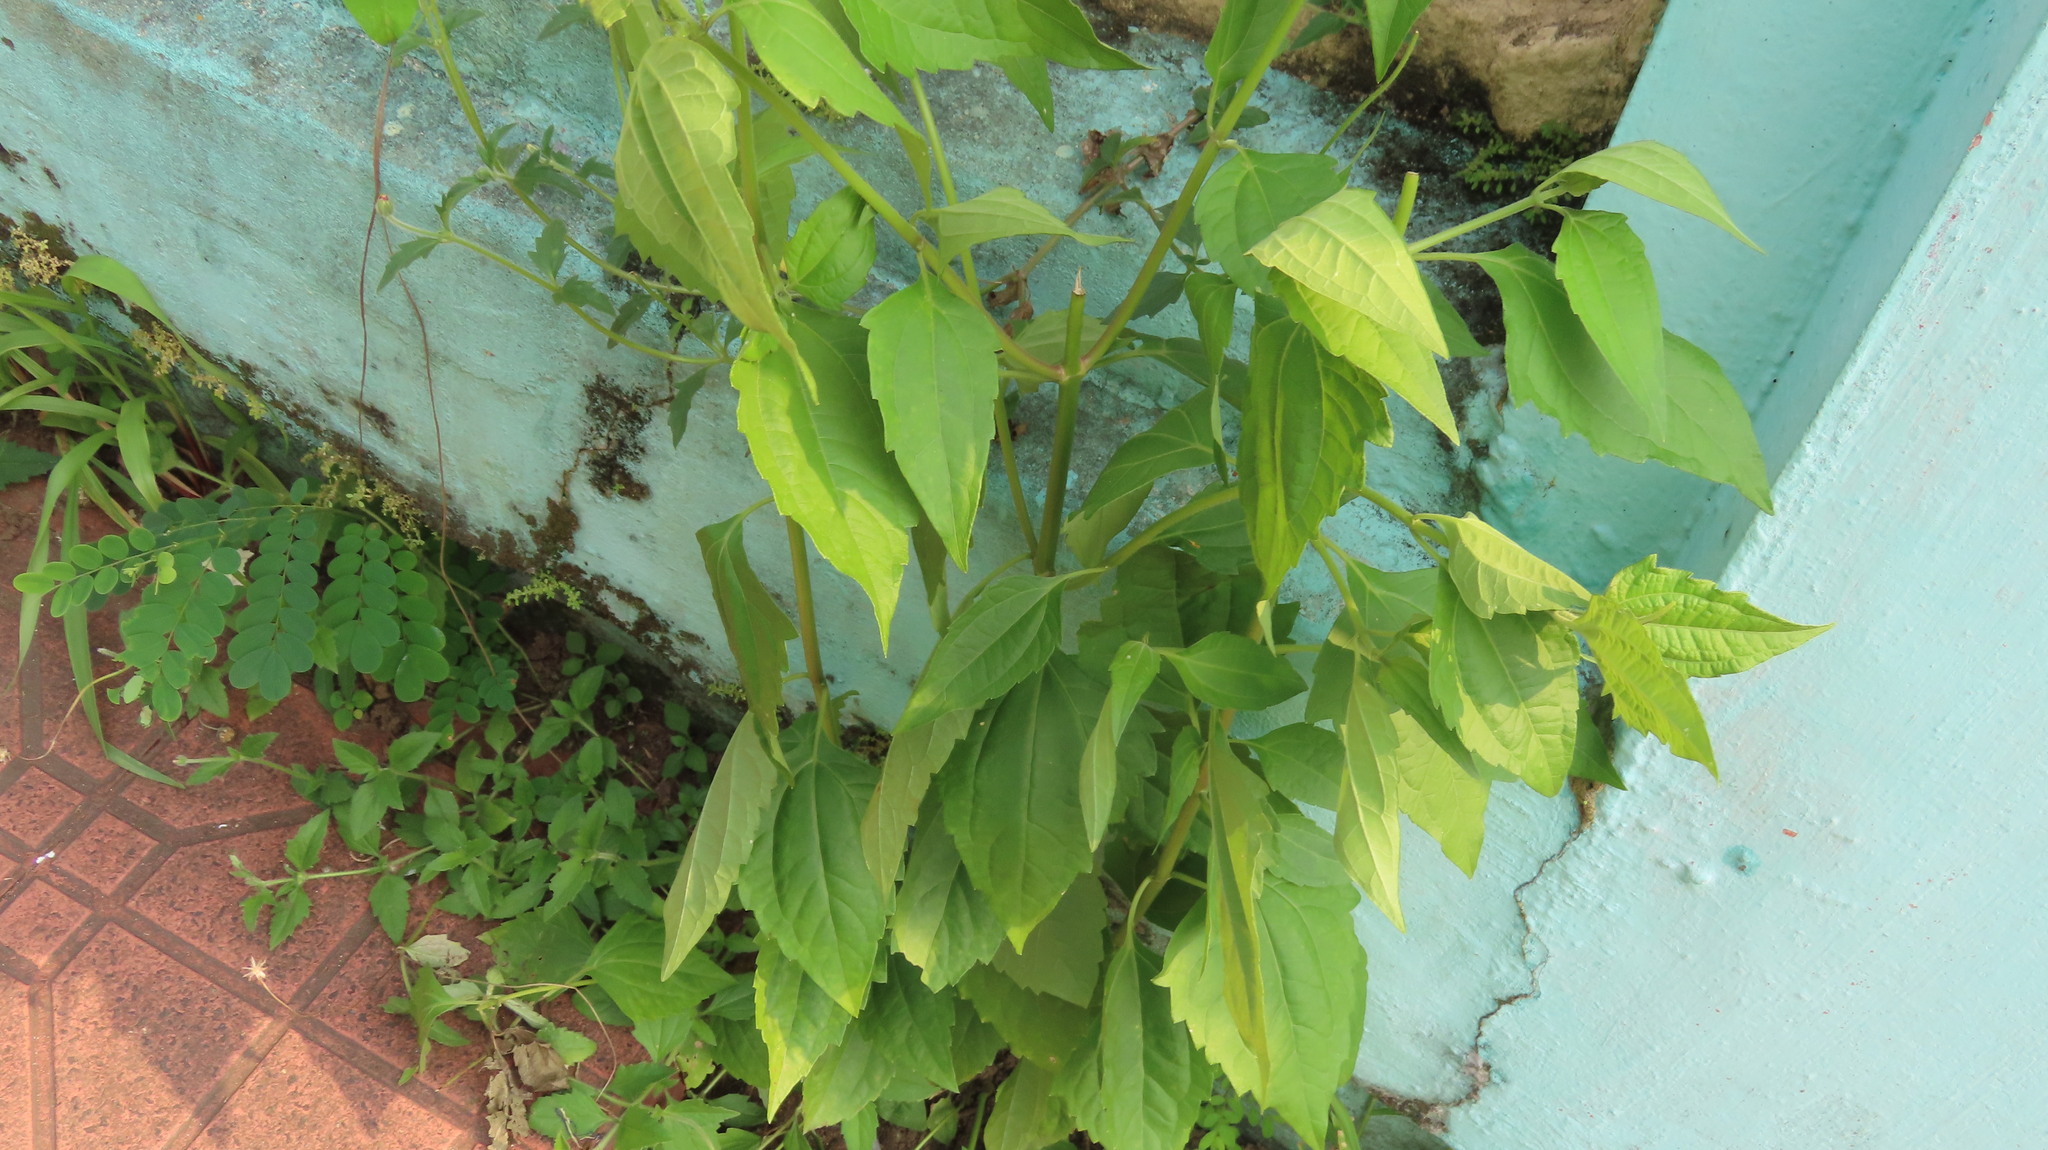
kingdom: Plantae
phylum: Tracheophyta
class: Magnoliopsida
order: Asterales
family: Asteraceae
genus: Chromolaena
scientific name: Chromolaena odorata
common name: Siamweed
